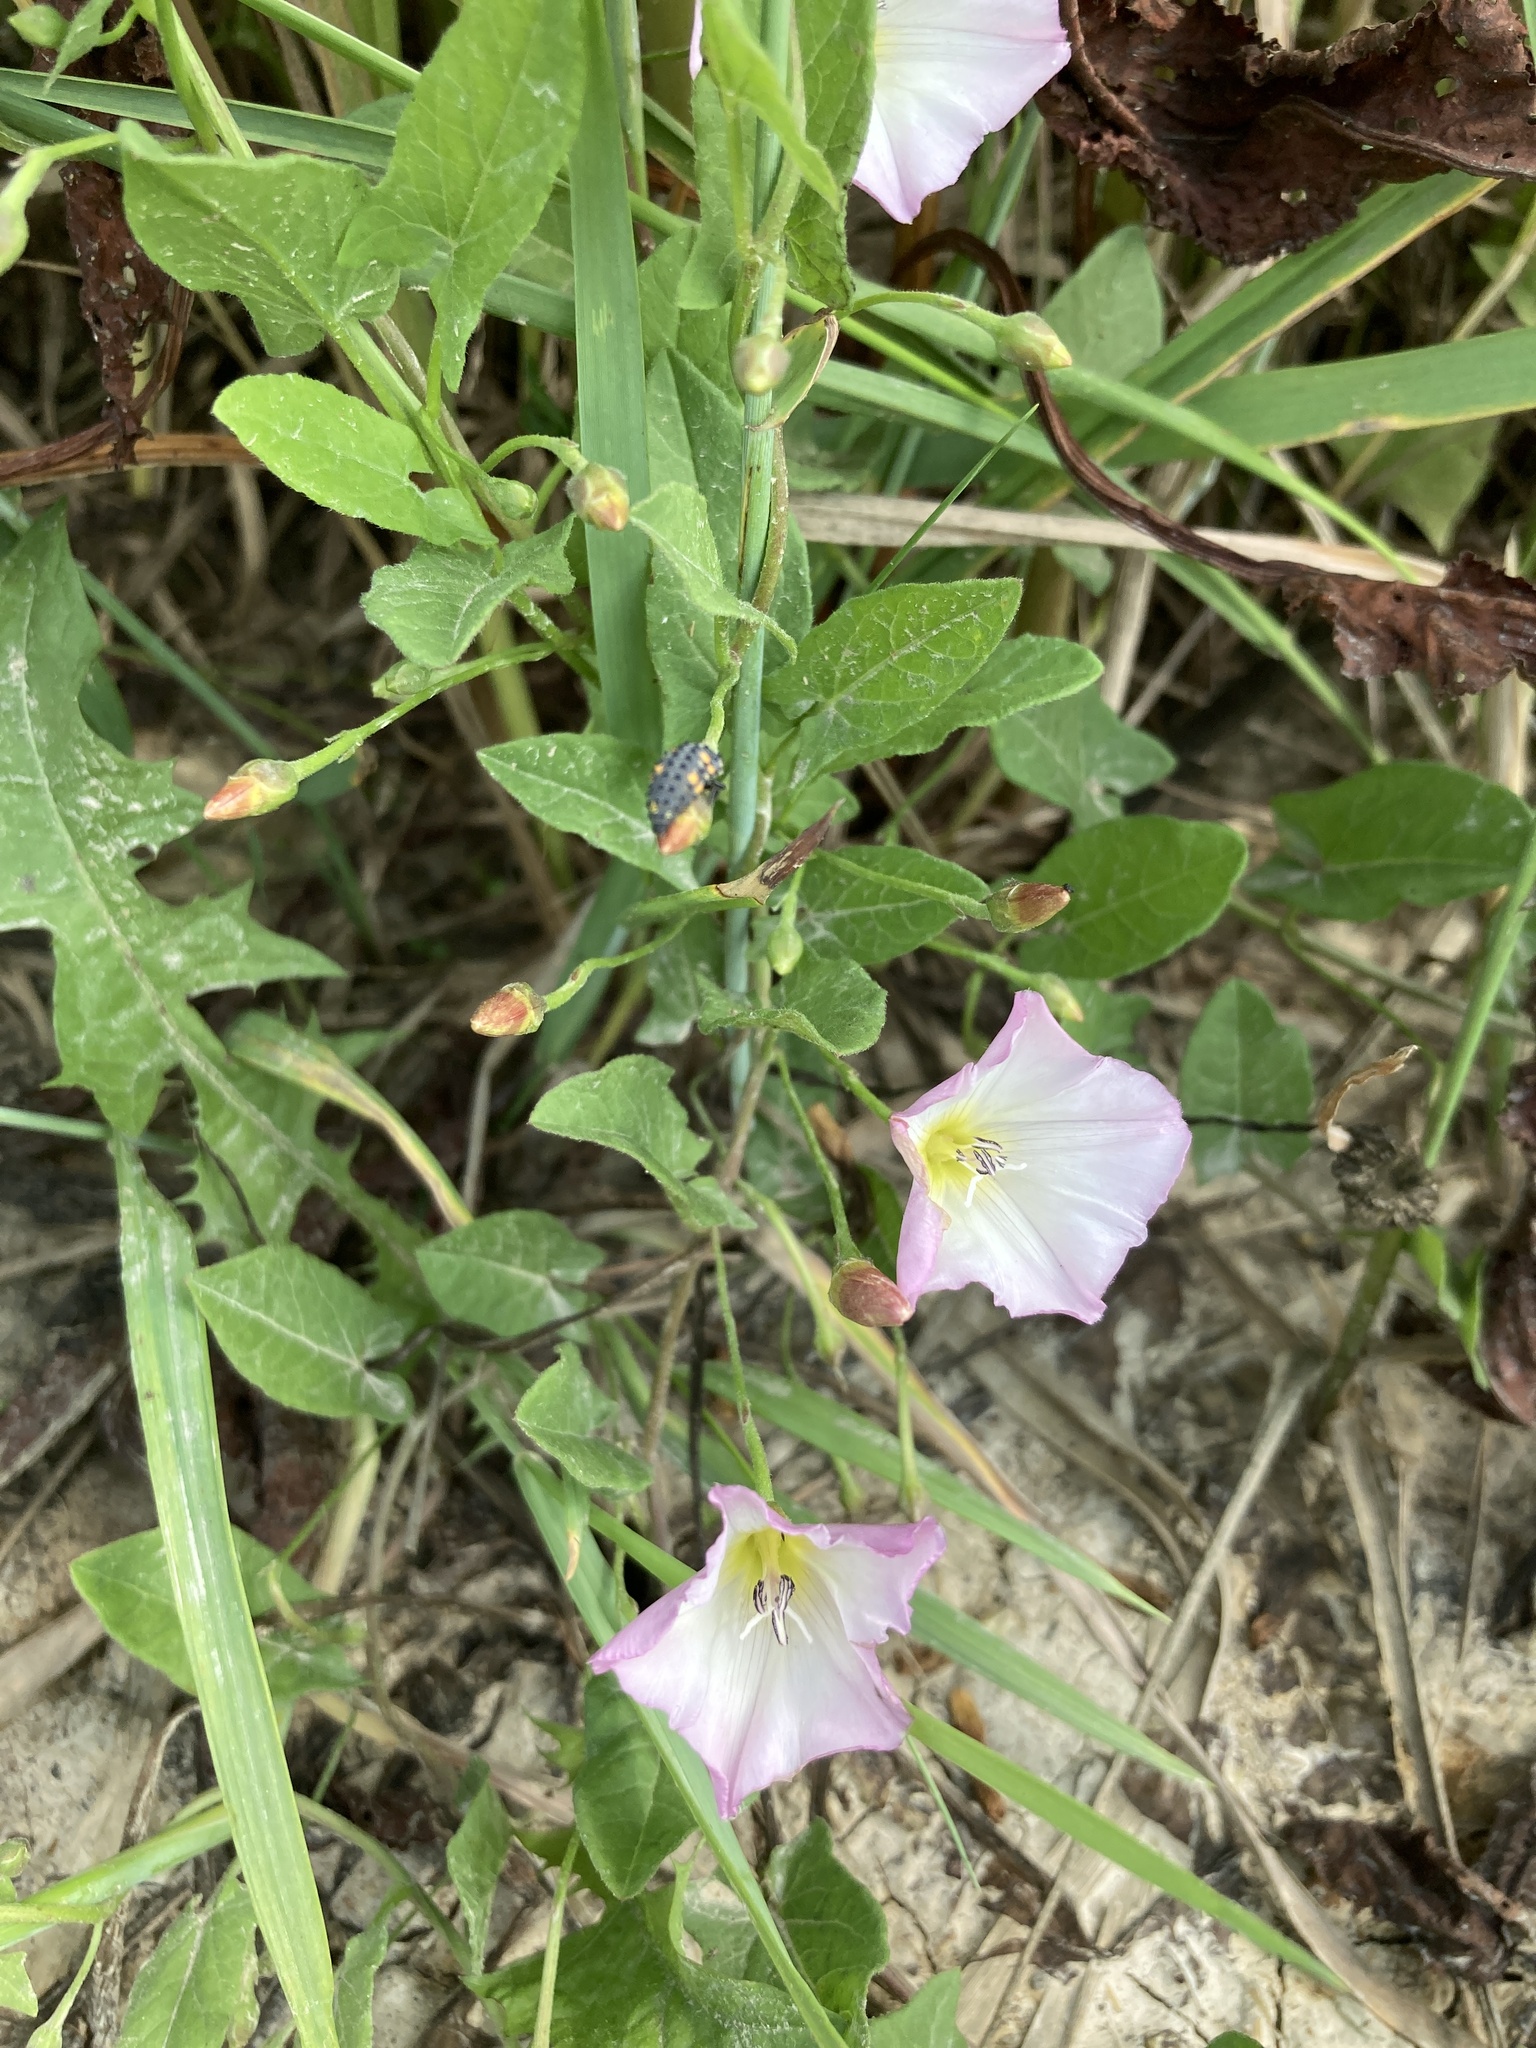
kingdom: Plantae
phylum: Tracheophyta
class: Magnoliopsida
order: Solanales
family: Convolvulaceae
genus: Convolvulus
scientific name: Convolvulus arvensis
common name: Field bindweed
